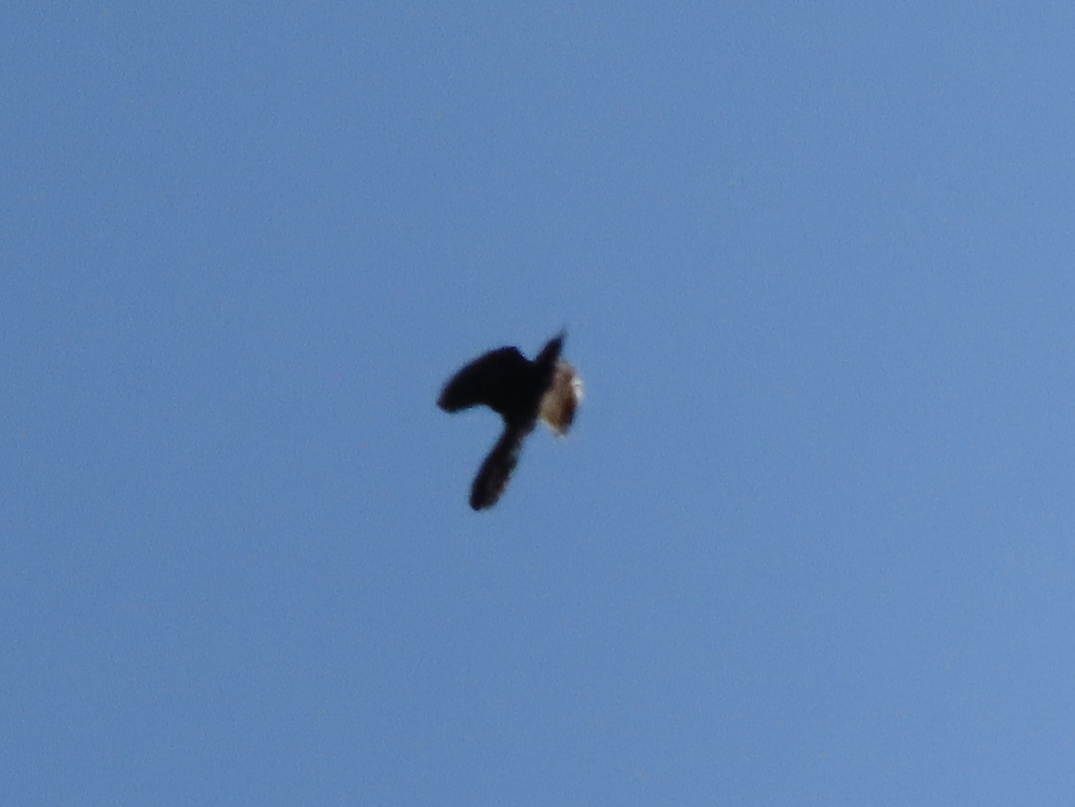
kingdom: Animalia
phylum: Chordata
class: Aves
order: Passeriformes
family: Icteridae
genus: Quiscalus
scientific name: Quiscalus major
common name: Boat-tailed grackle
